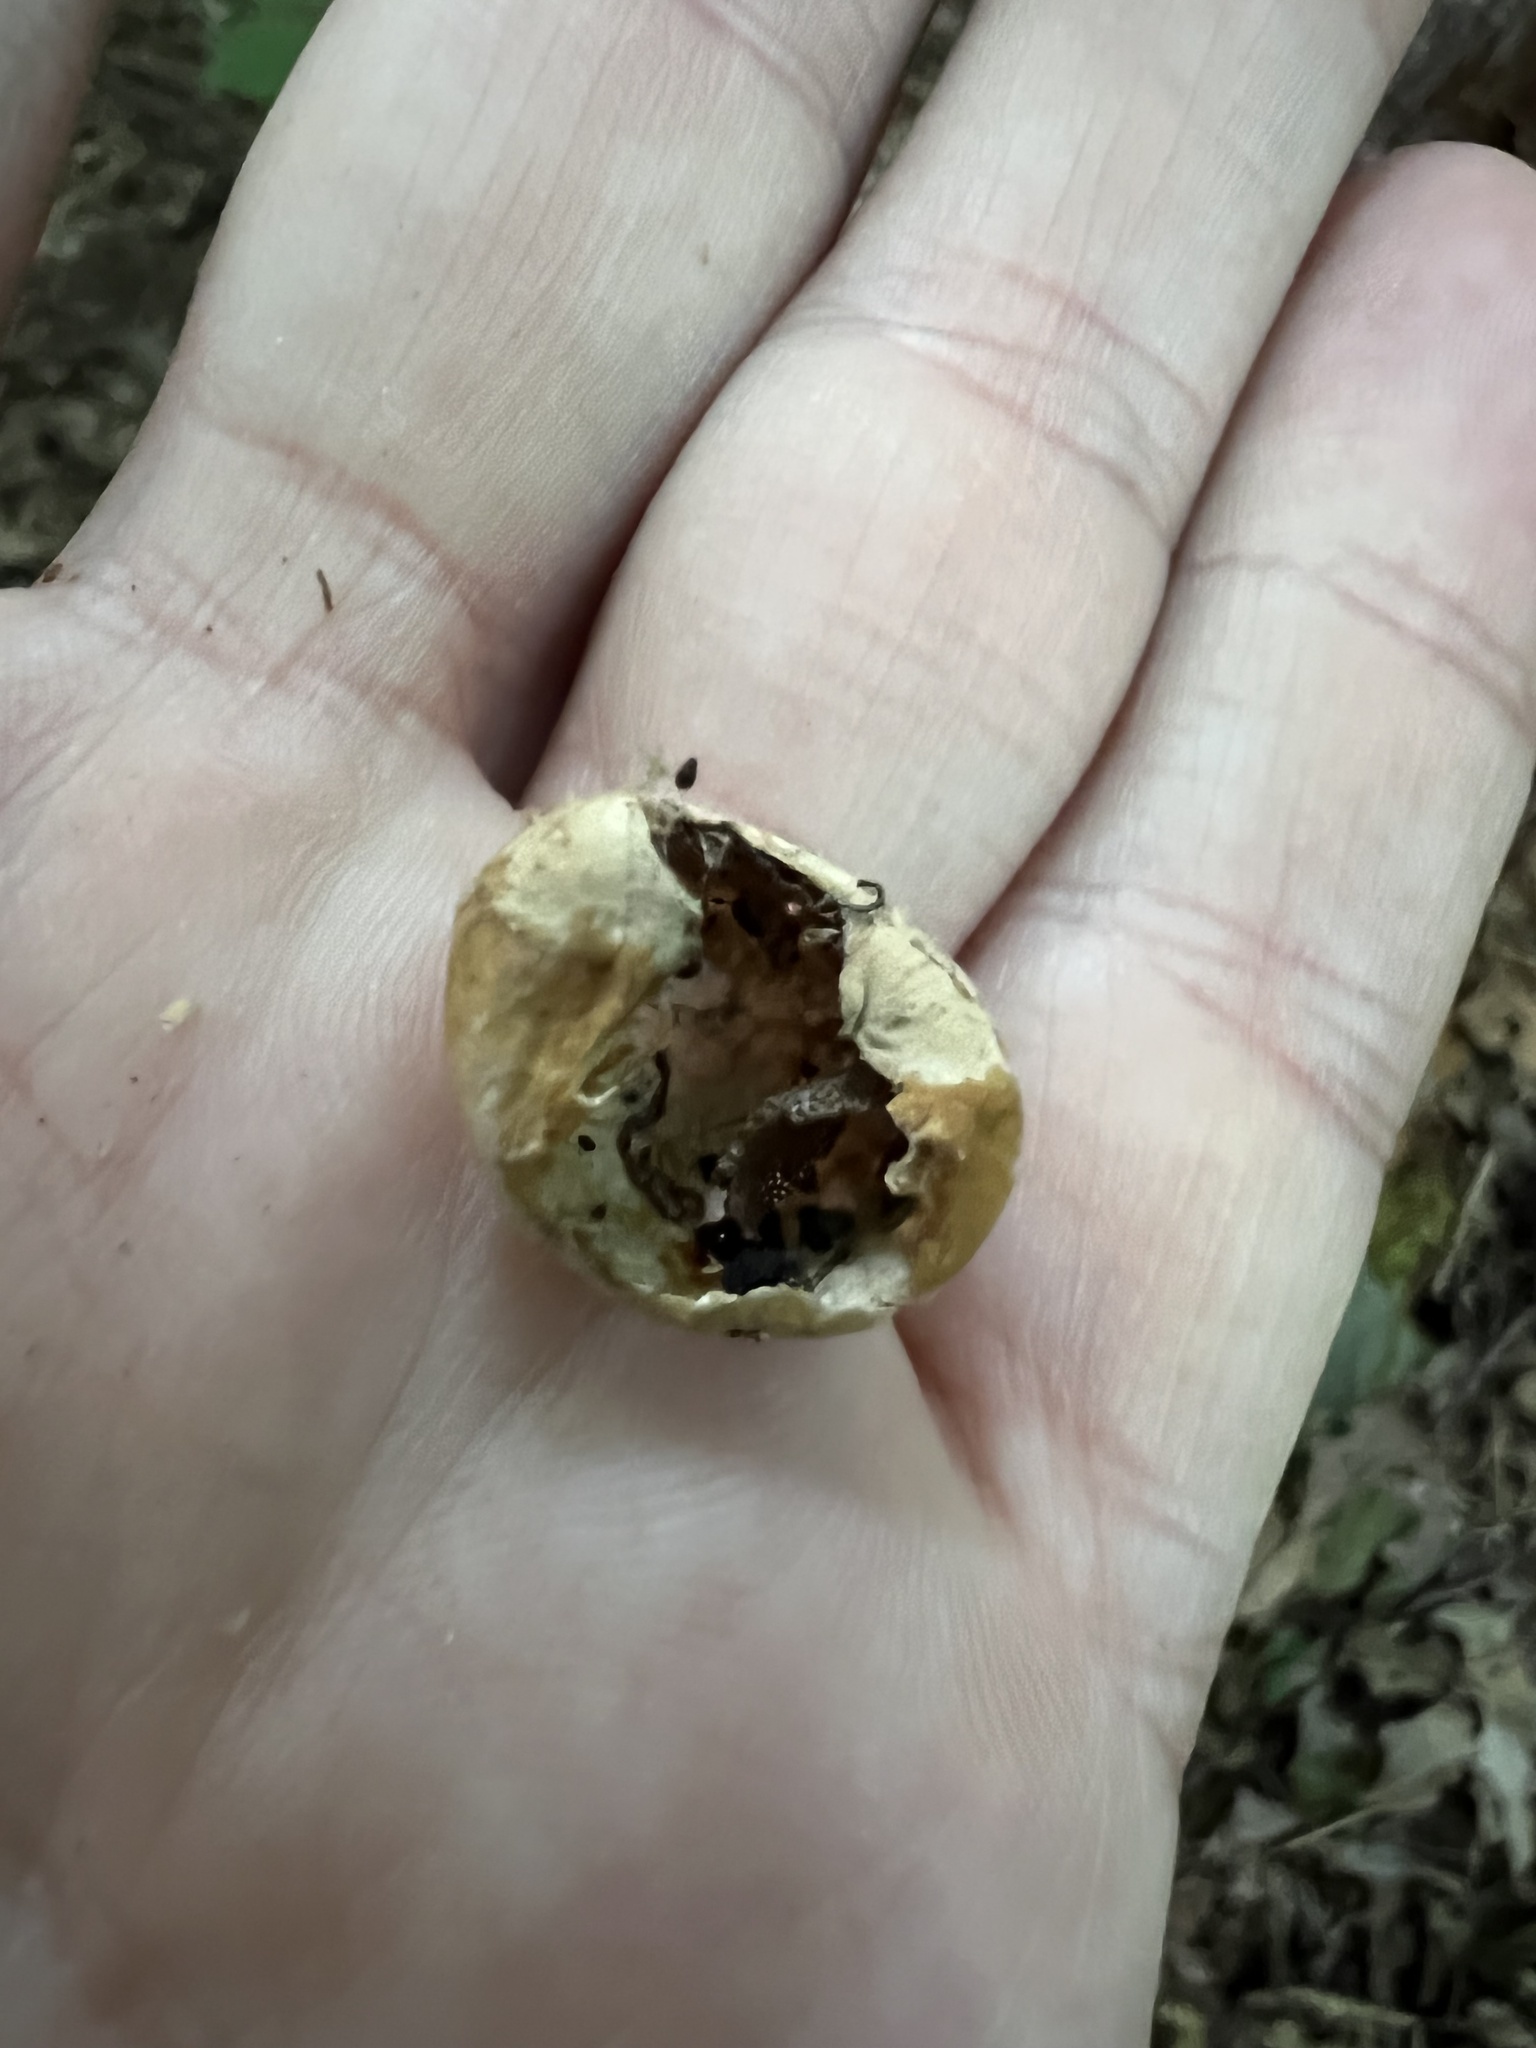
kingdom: Fungi
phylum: Basidiomycota
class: Agaricomycetes
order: Polyporales
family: Polyporaceae
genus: Cryptoporus
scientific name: Cryptoporus volvatus
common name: Veiled polypore
